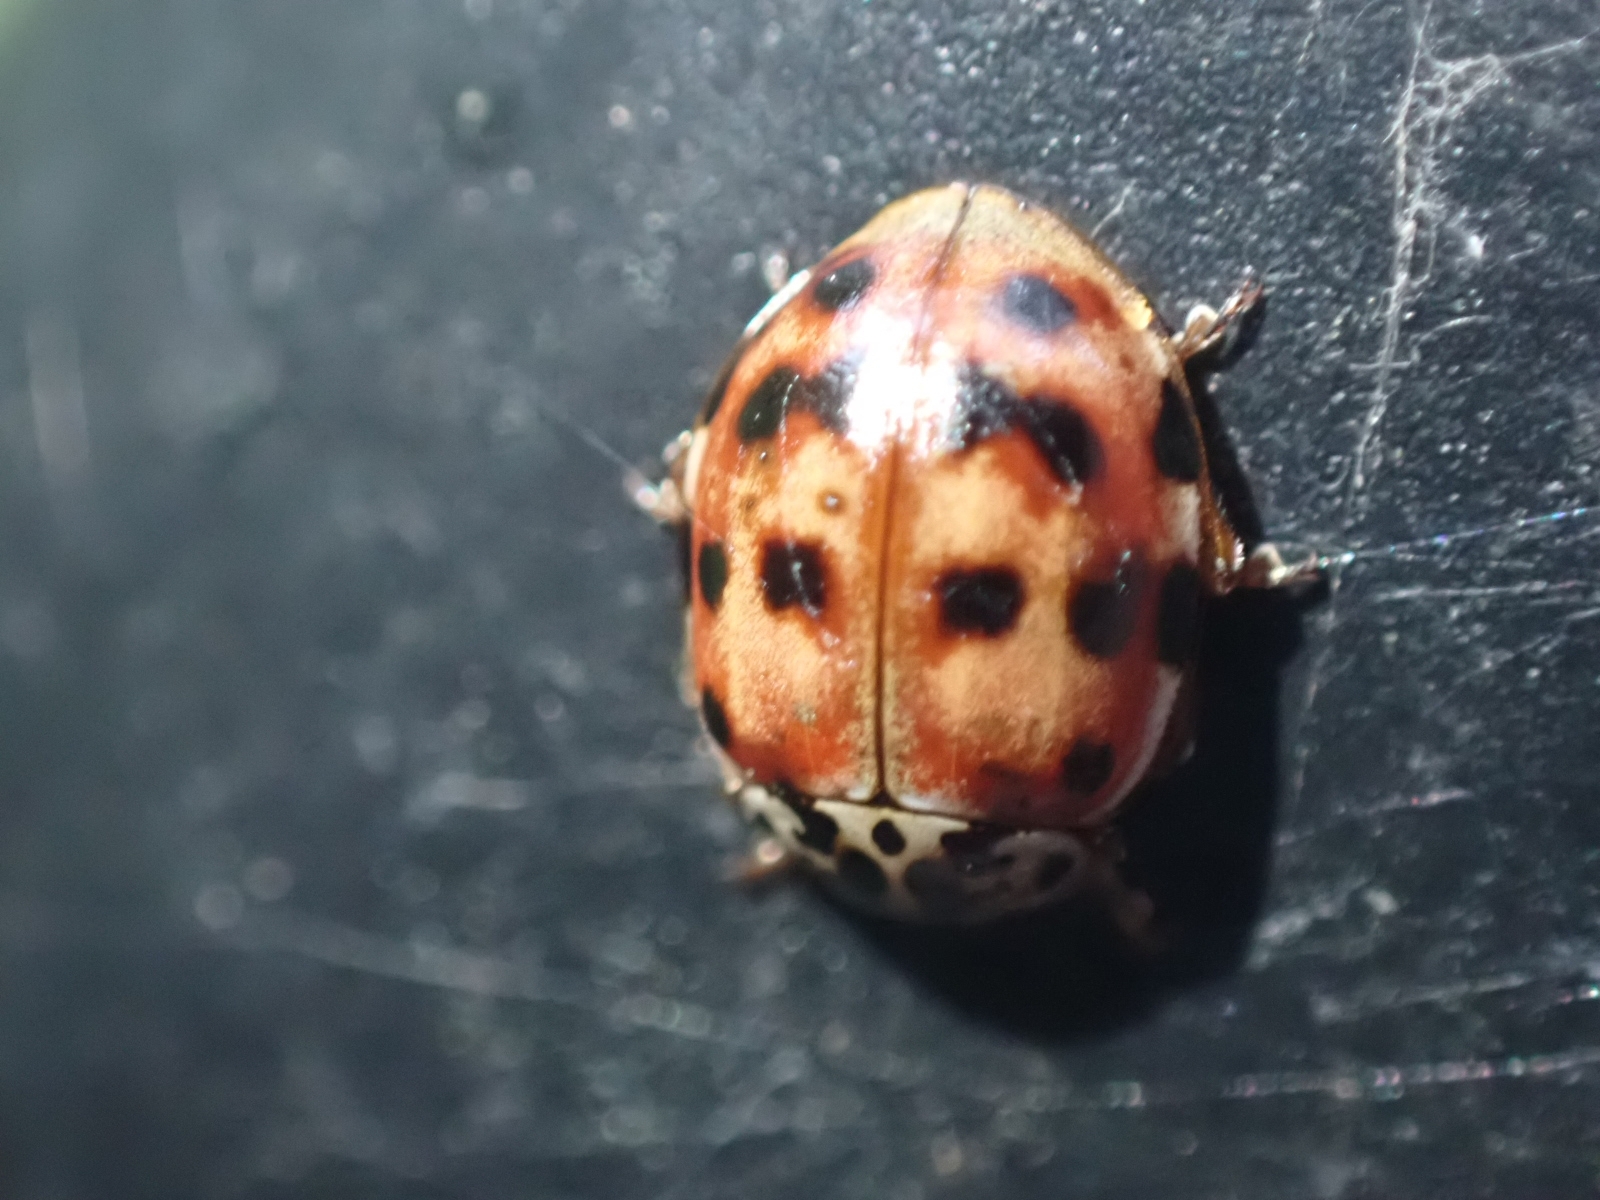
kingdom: Animalia
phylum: Arthropoda
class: Insecta
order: Coleoptera
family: Coccinellidae
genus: Harmonia
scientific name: Harmonia quadripunctata
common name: Cream-streaked ladybird
